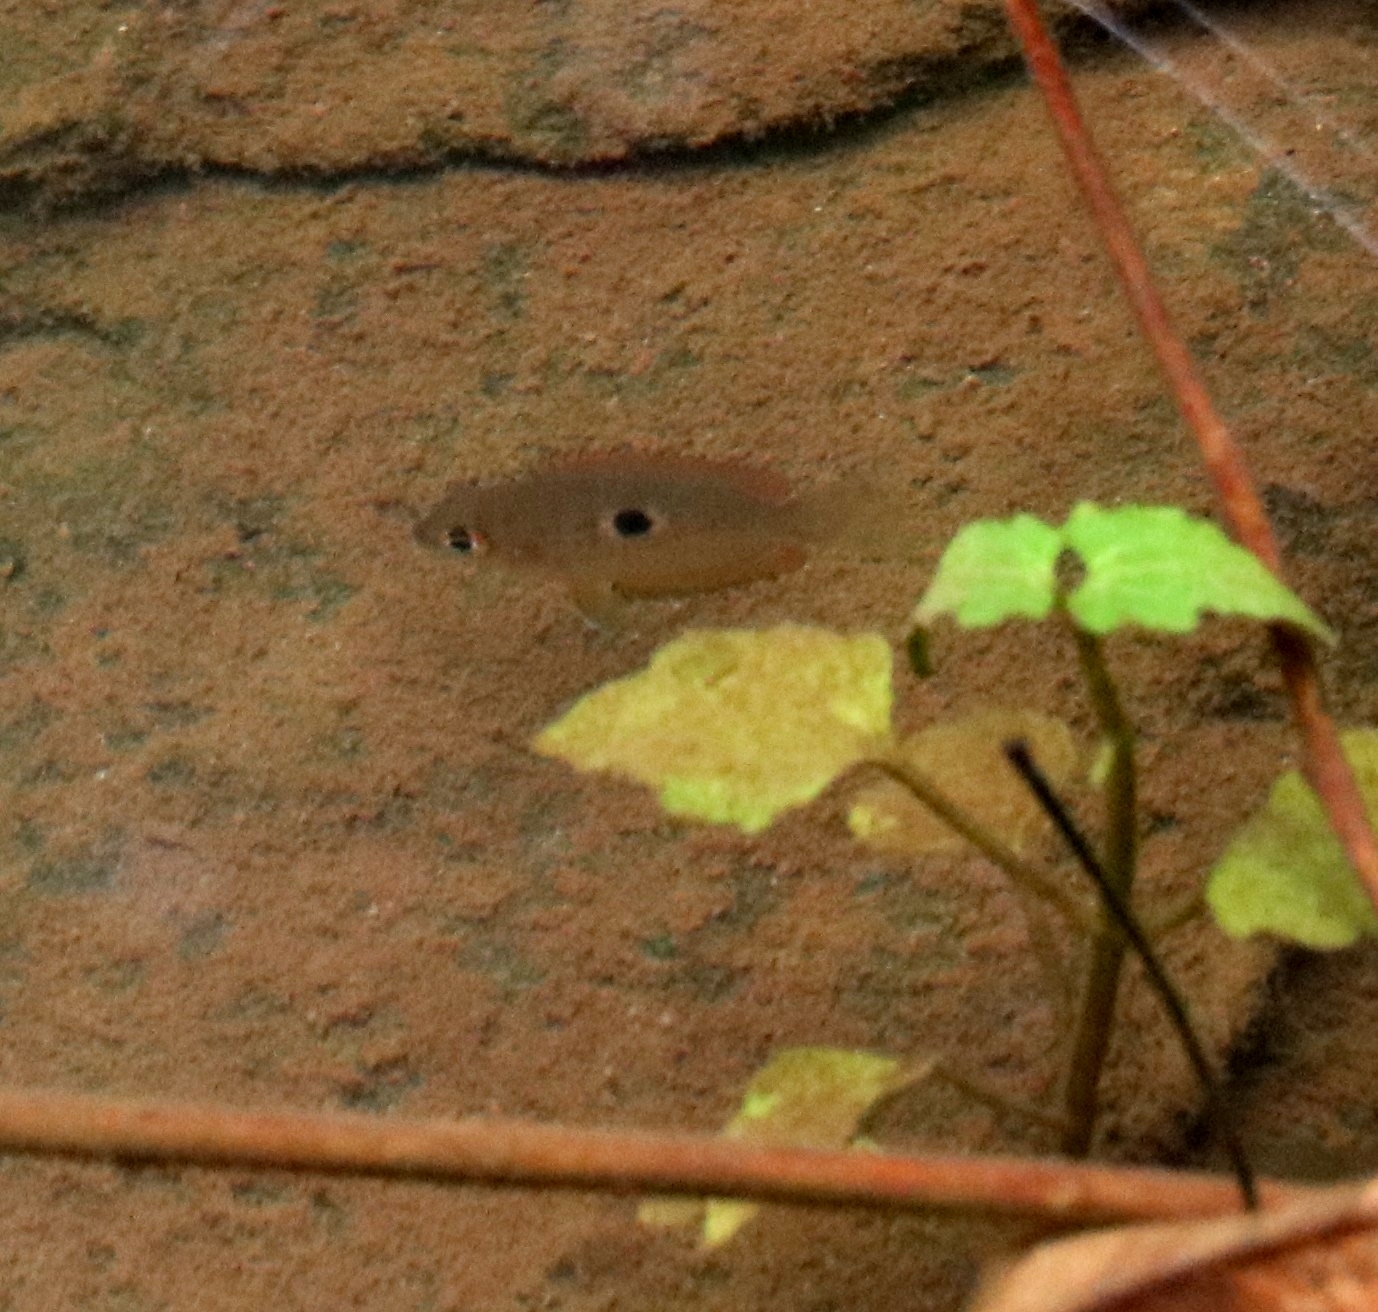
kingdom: Animalia
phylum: Chordata
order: Perciformes
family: Cichlidae
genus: Etroplus
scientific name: Etroplus maculatus
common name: Orange chromide
